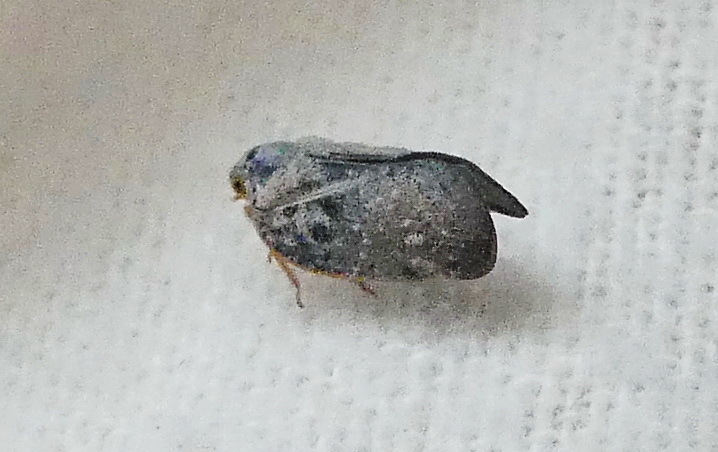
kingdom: Animalia
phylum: Arthropoda
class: Insecta
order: Hemiptera
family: Flatidae
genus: Metcalfa
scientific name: Metcalfa pruinosa
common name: Citrus flatid planthopper
